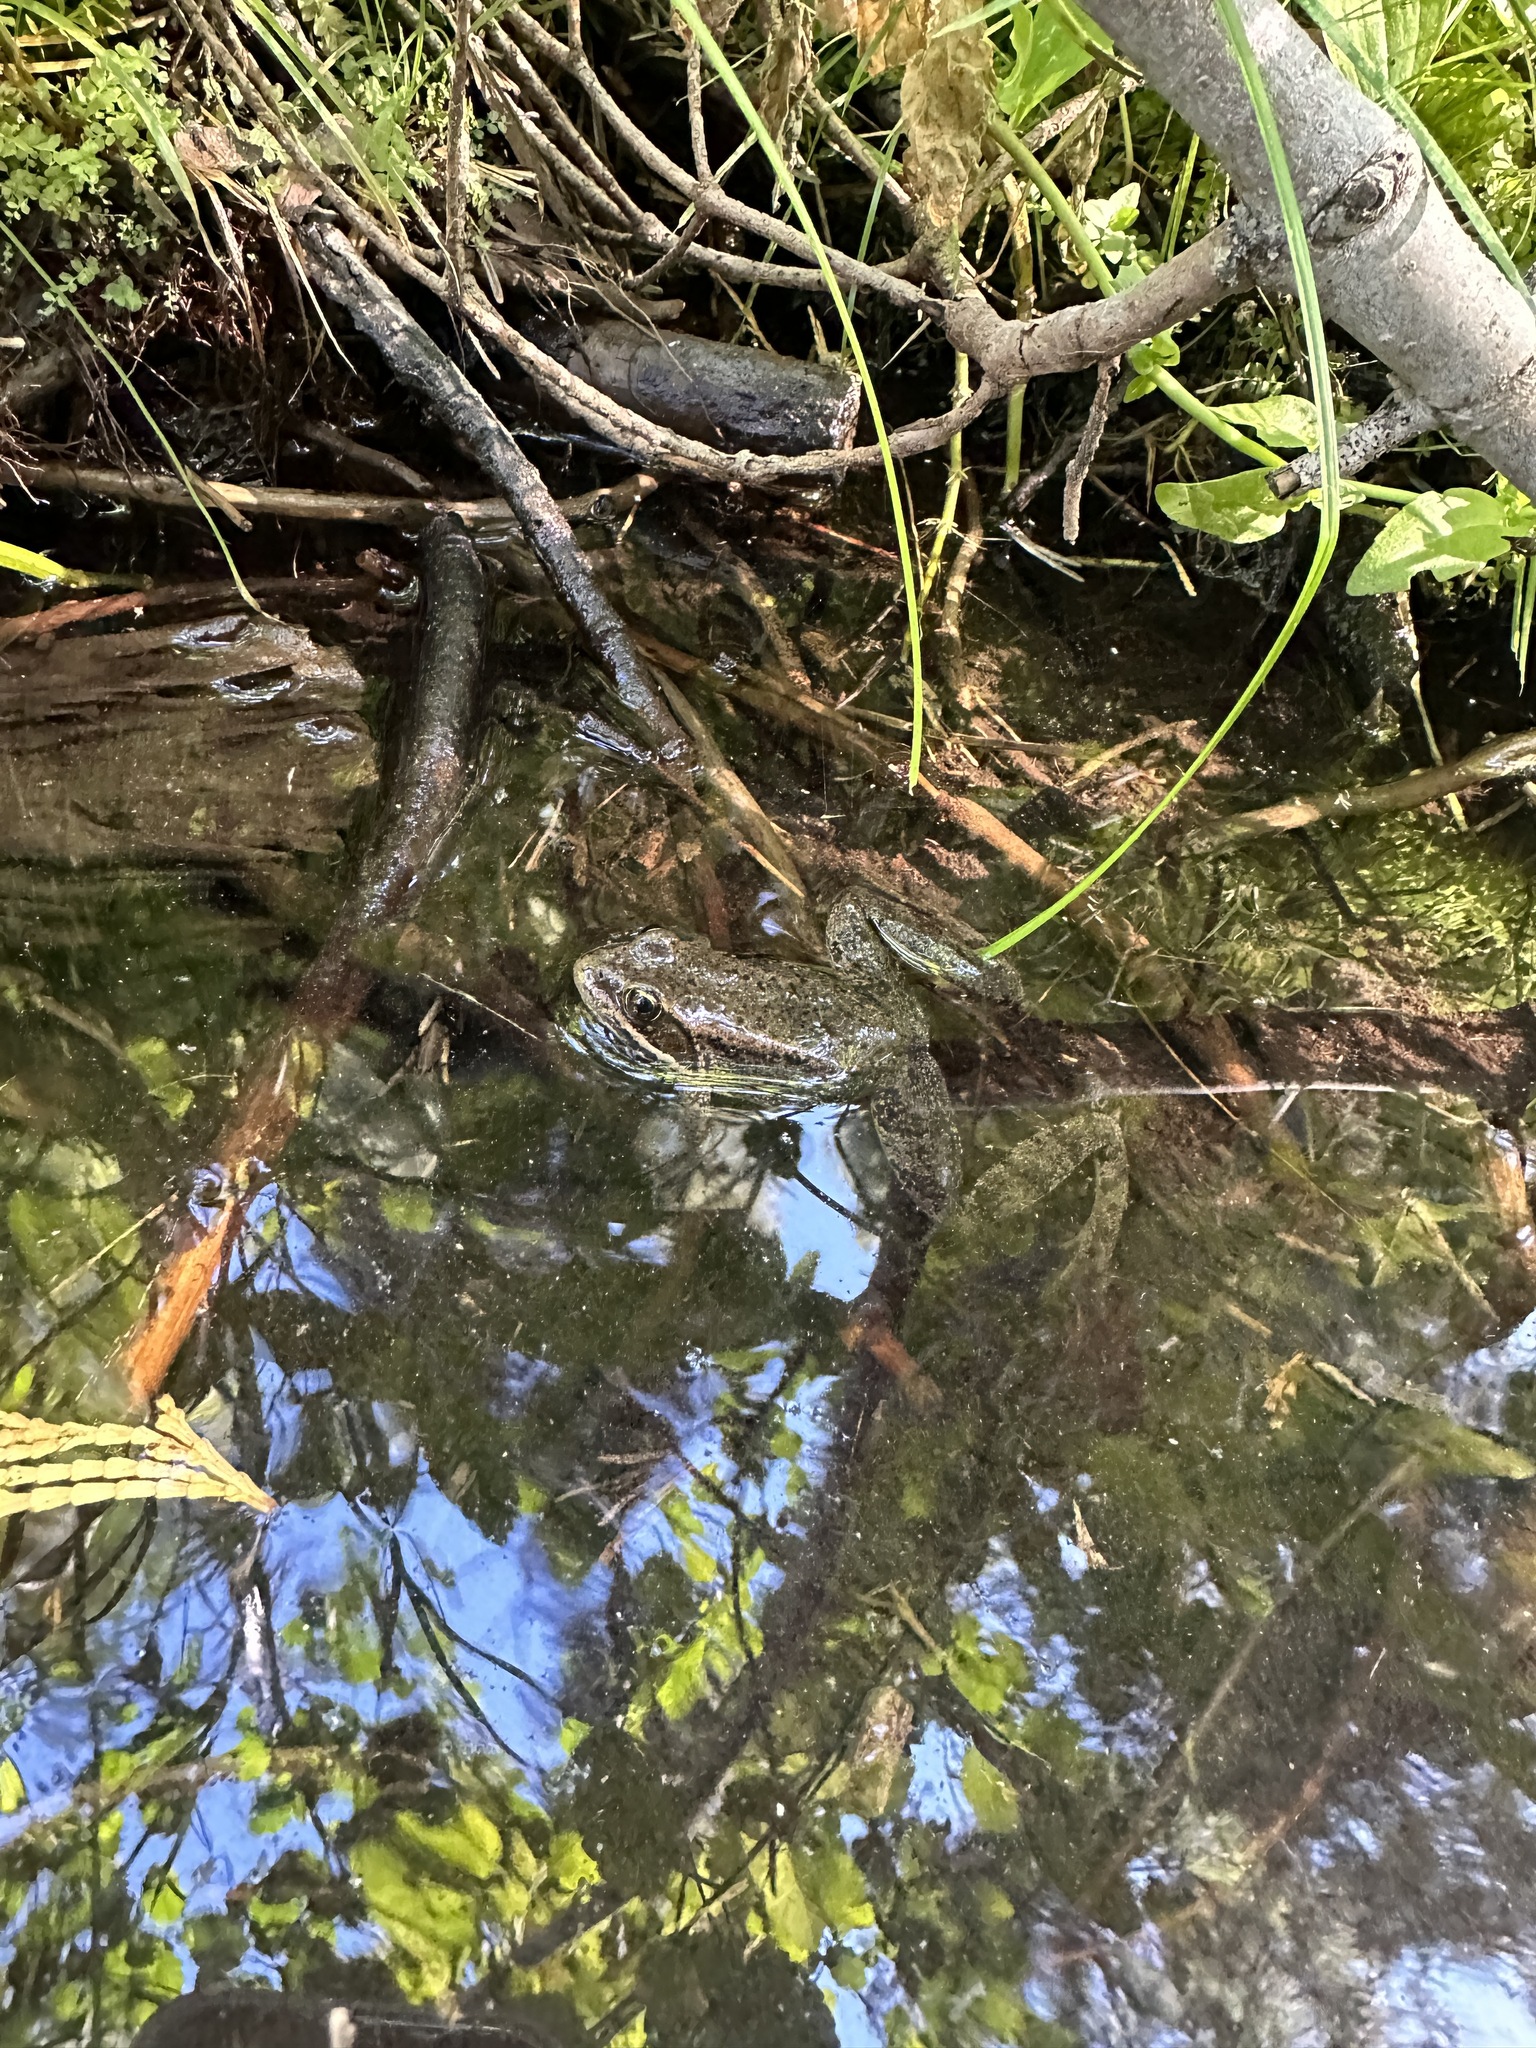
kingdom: Animalia
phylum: Chordata
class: Amphibia
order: Anura
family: Ranidae
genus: Rana
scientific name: Rana cascadae
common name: Cascades frog
